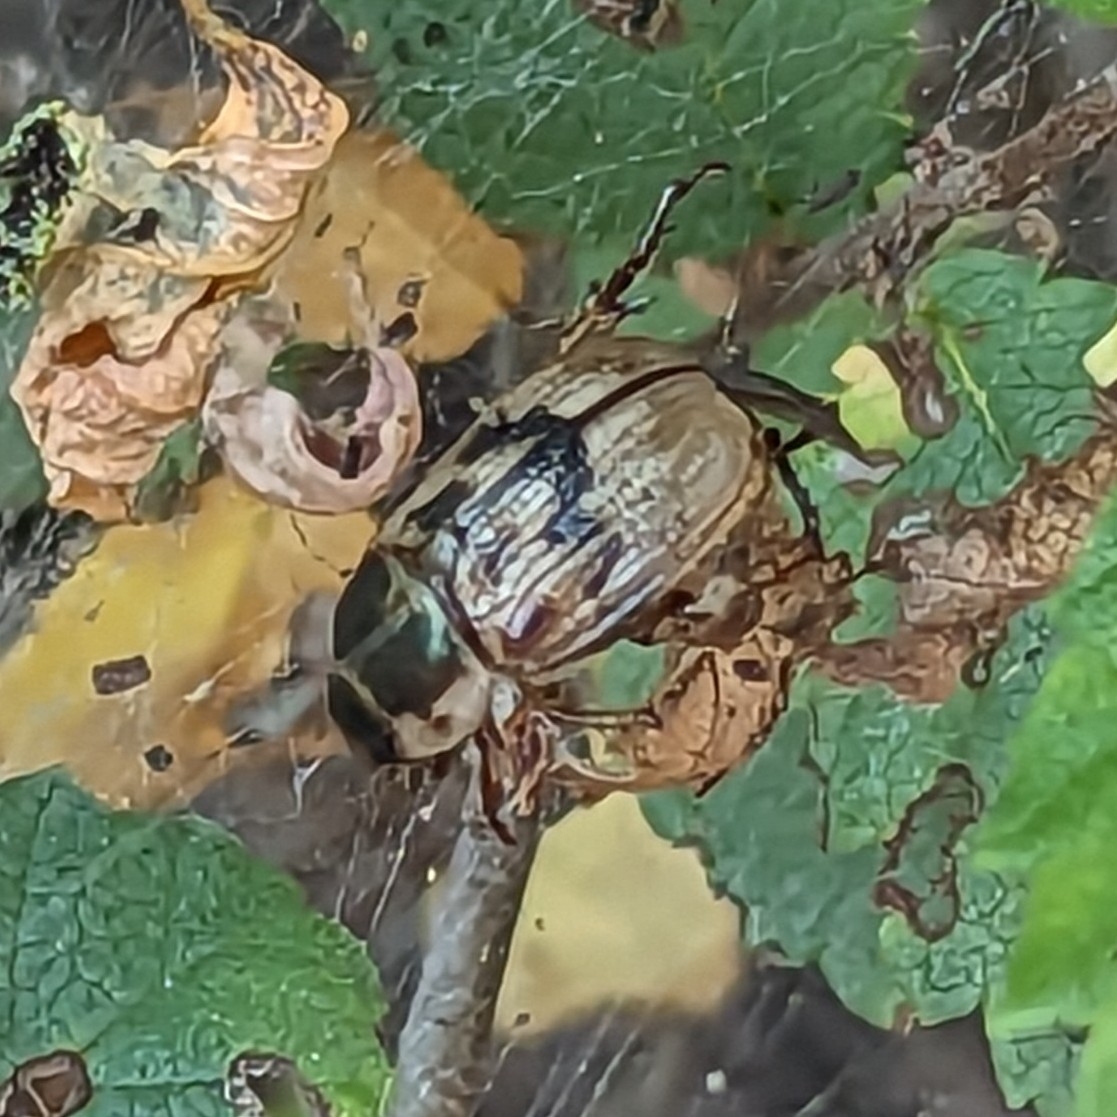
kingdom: Animalia
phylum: Arthropoda
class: Insecta
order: Coleoptera
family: Scarabaeidae
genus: Exomala
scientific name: Exomala orientalis
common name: Oriental beetle
